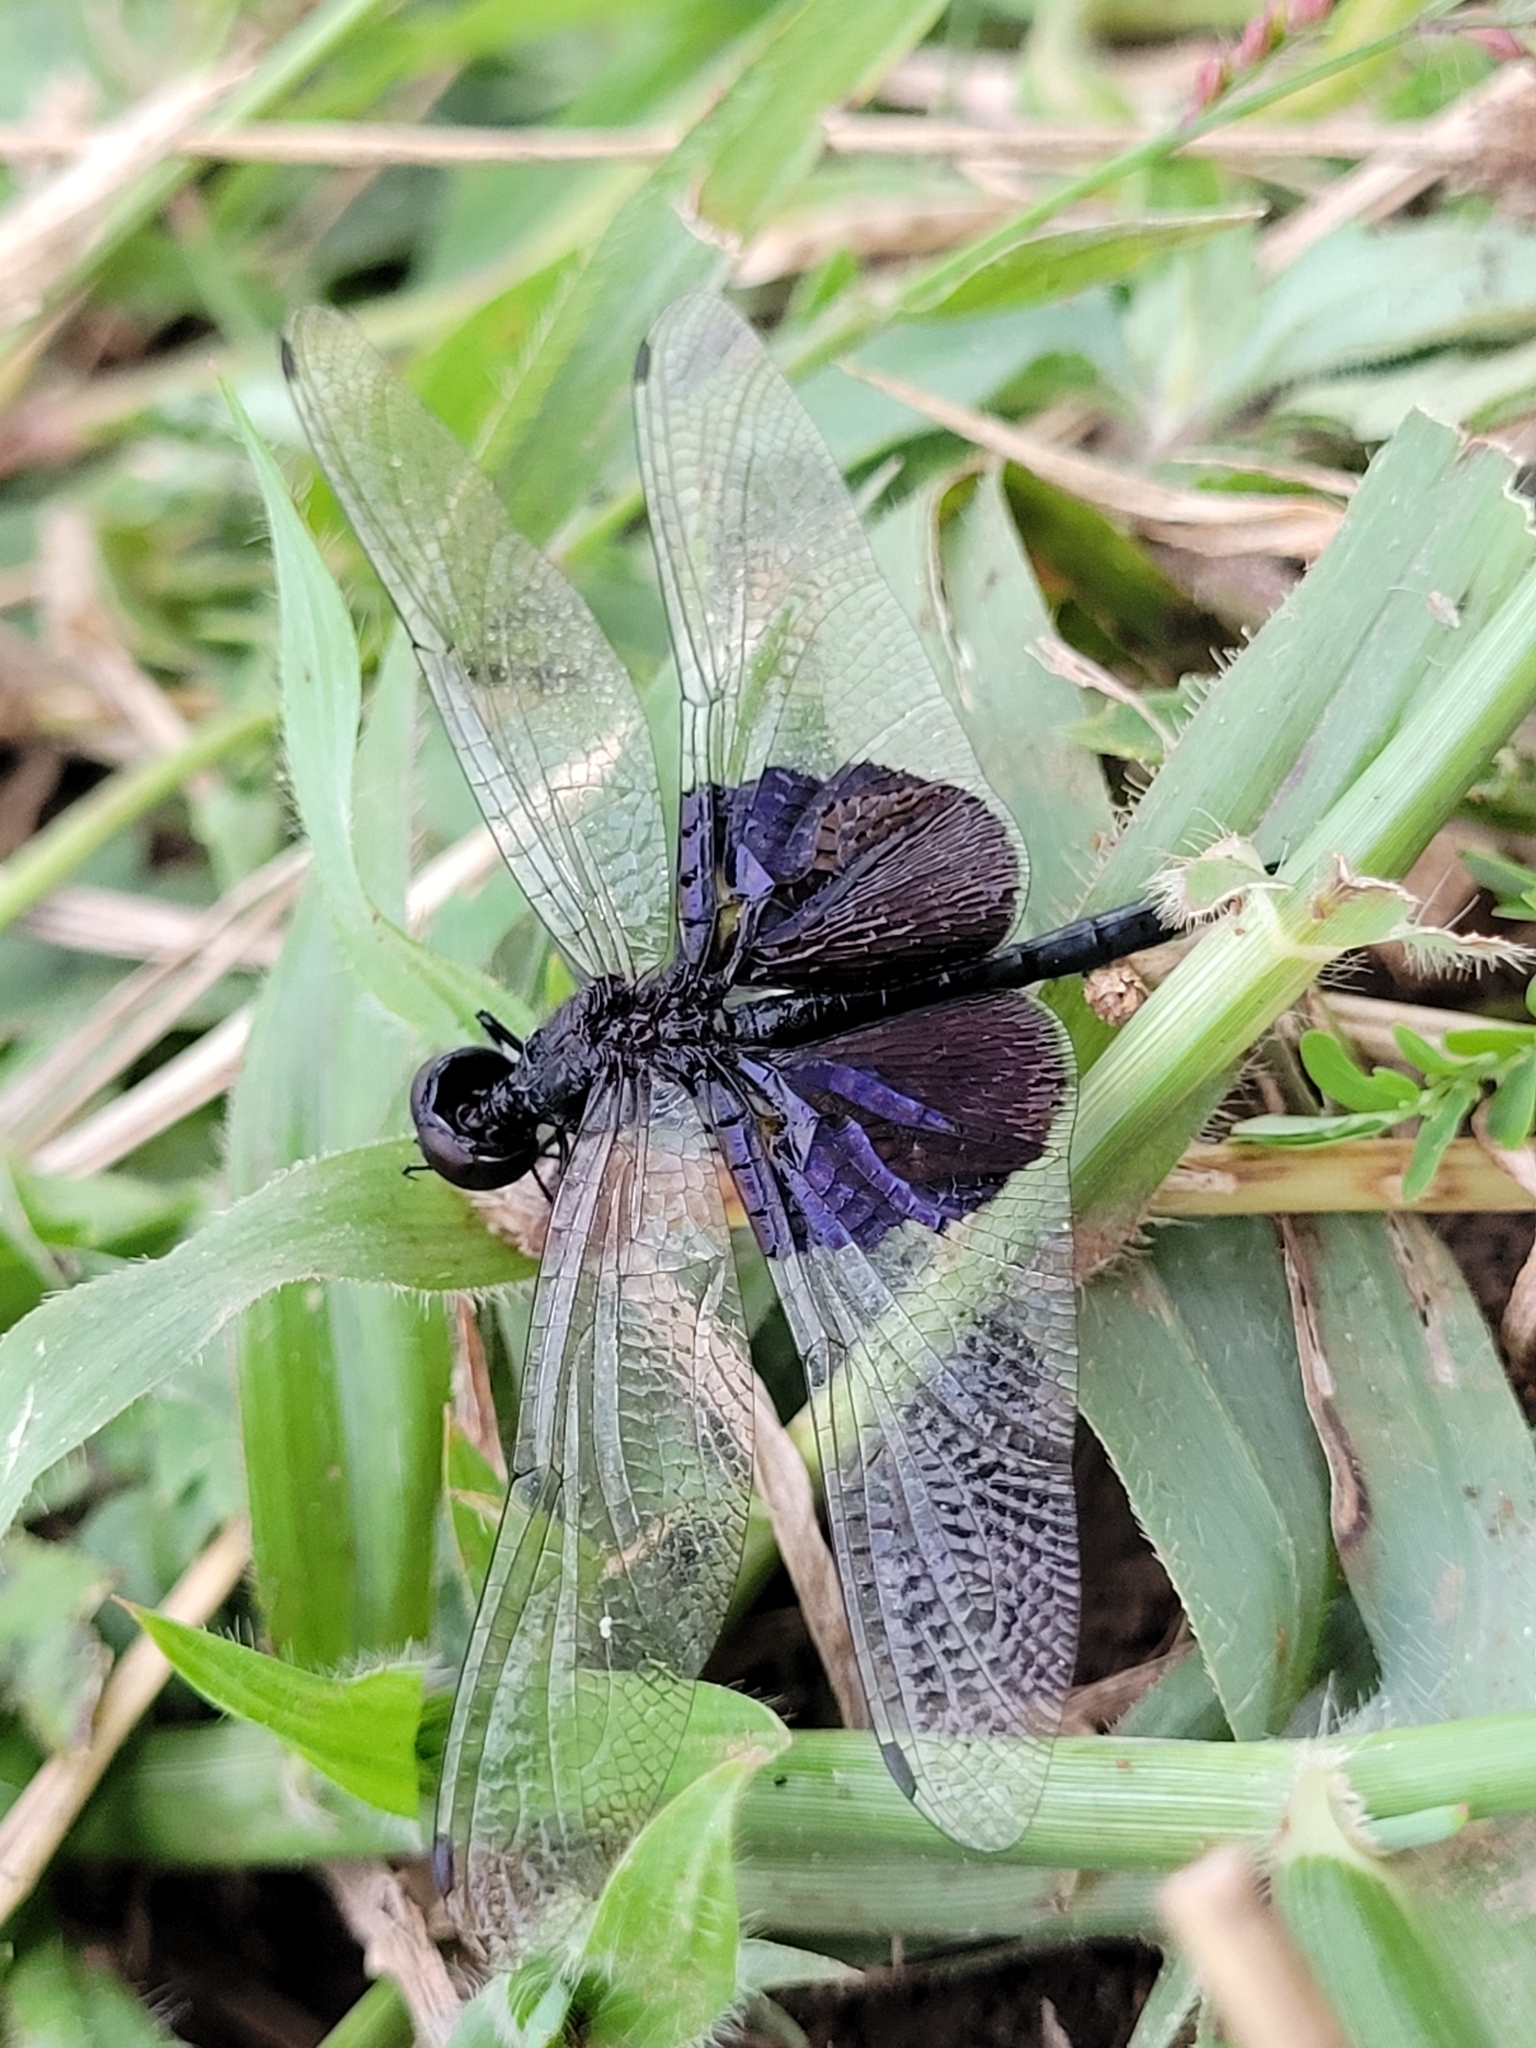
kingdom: Animalia
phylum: Arthropoda
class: Insecta
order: Odonata
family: Libellulidae
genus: Rhyothemis
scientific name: Rhyothemis semihyalina
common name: Phantom flutterer
